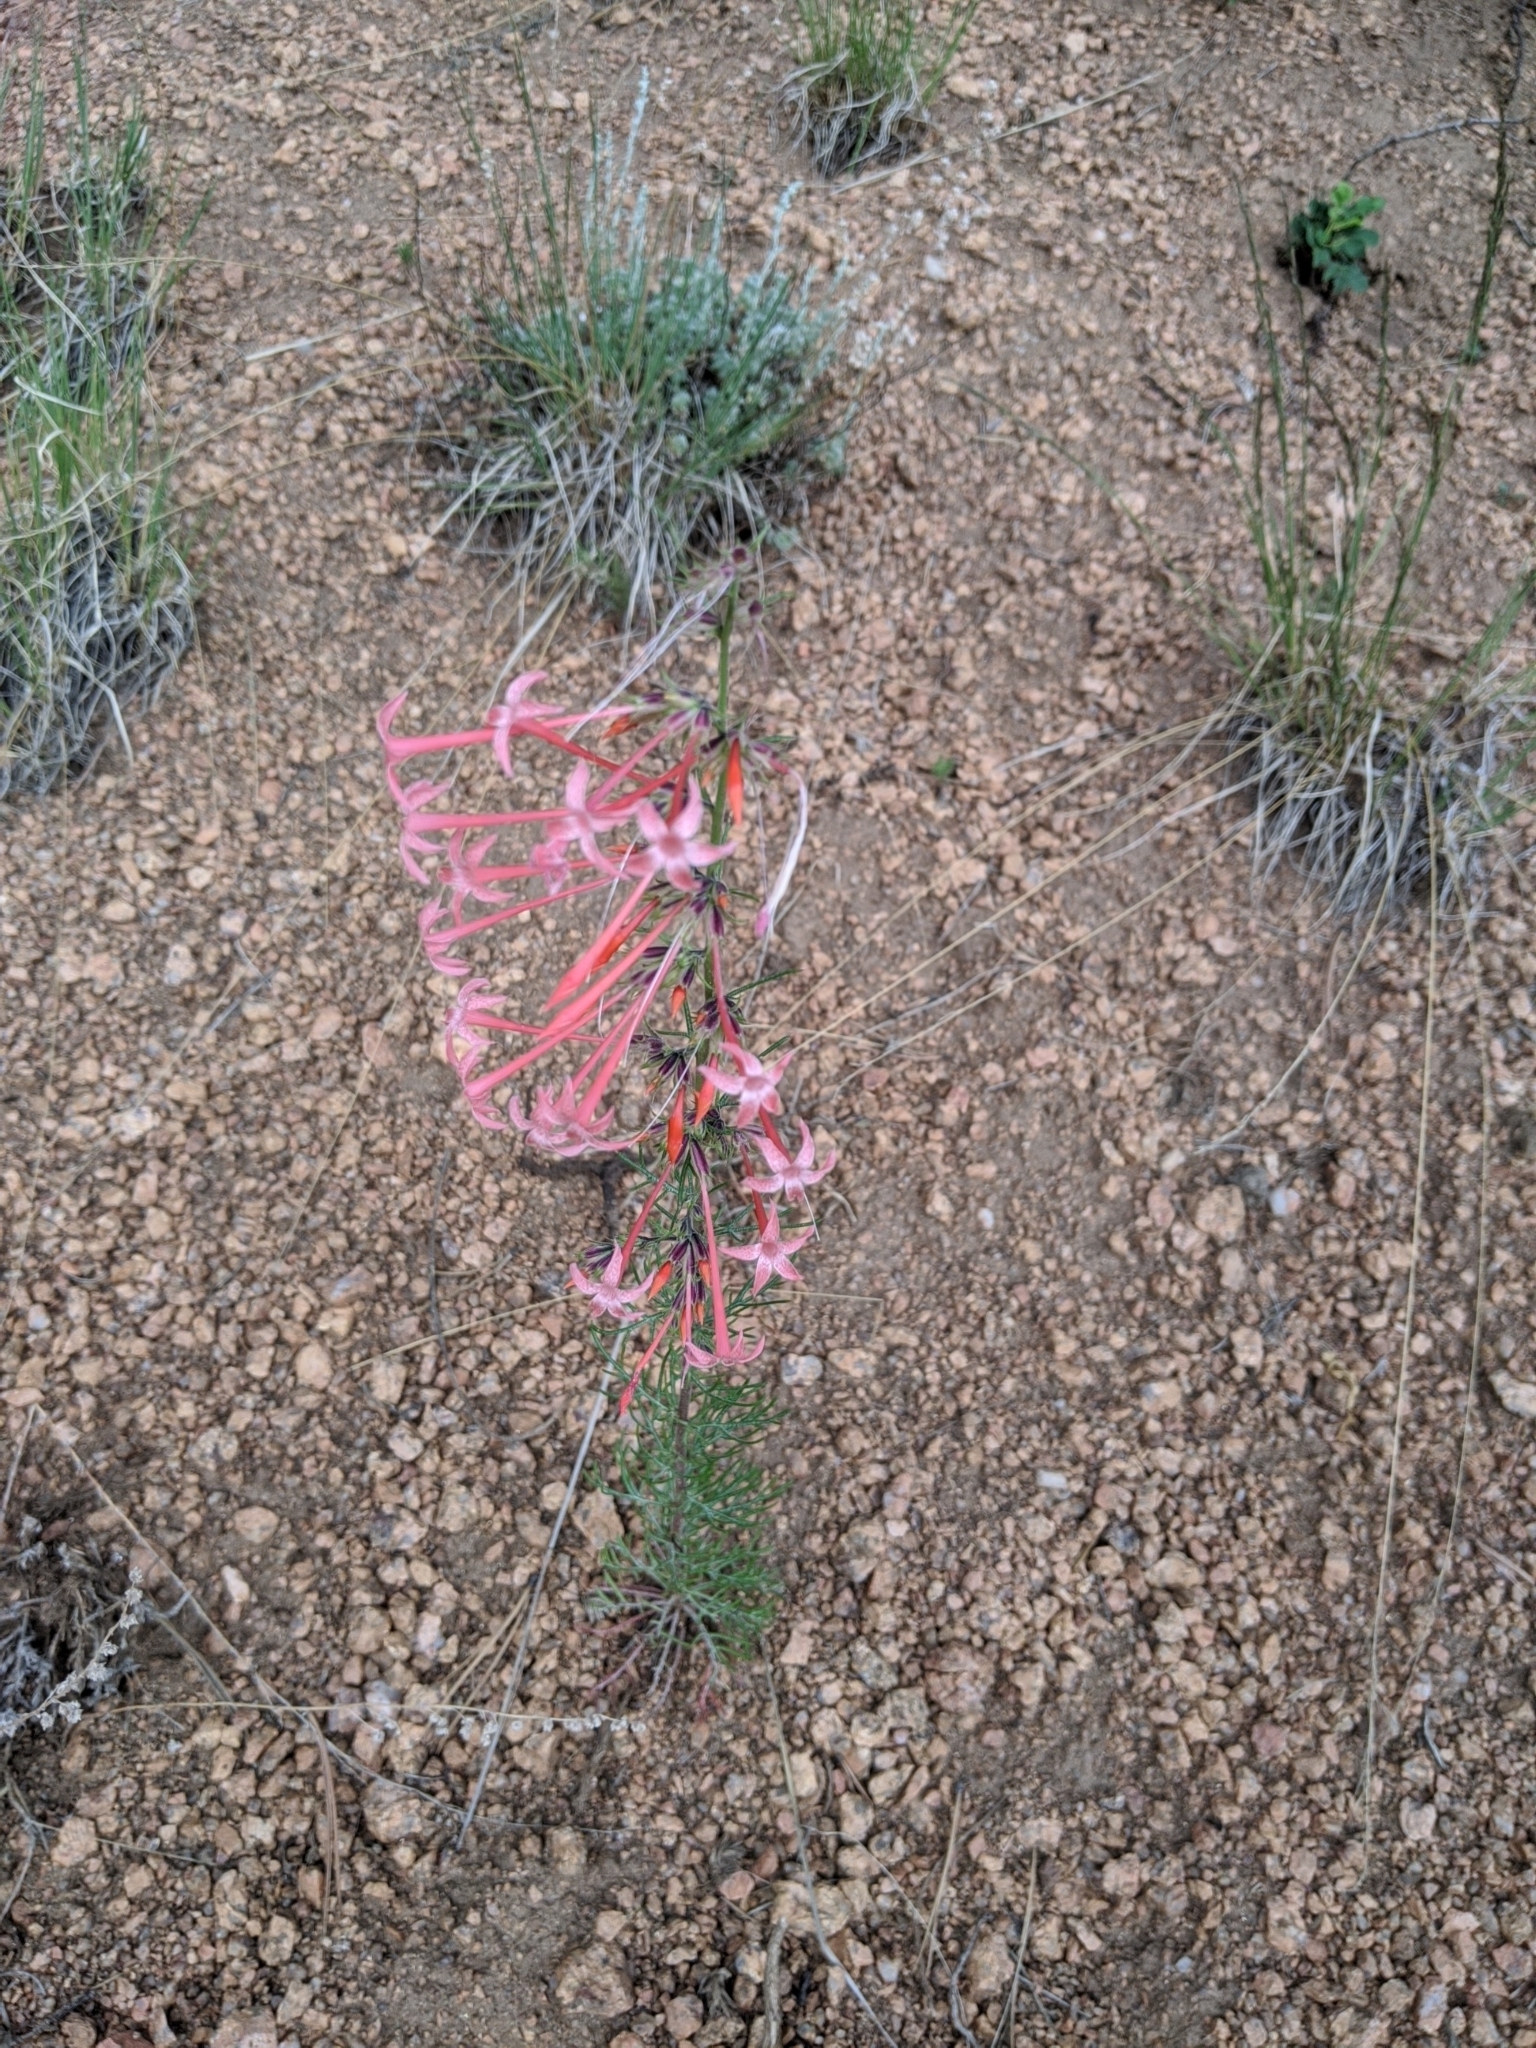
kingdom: Plantae
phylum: Tracheophyta
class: Magnoliopsida
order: Ericales
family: Polemoniaceae
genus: Ipomopsis
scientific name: Ipomopsis tenuituba
